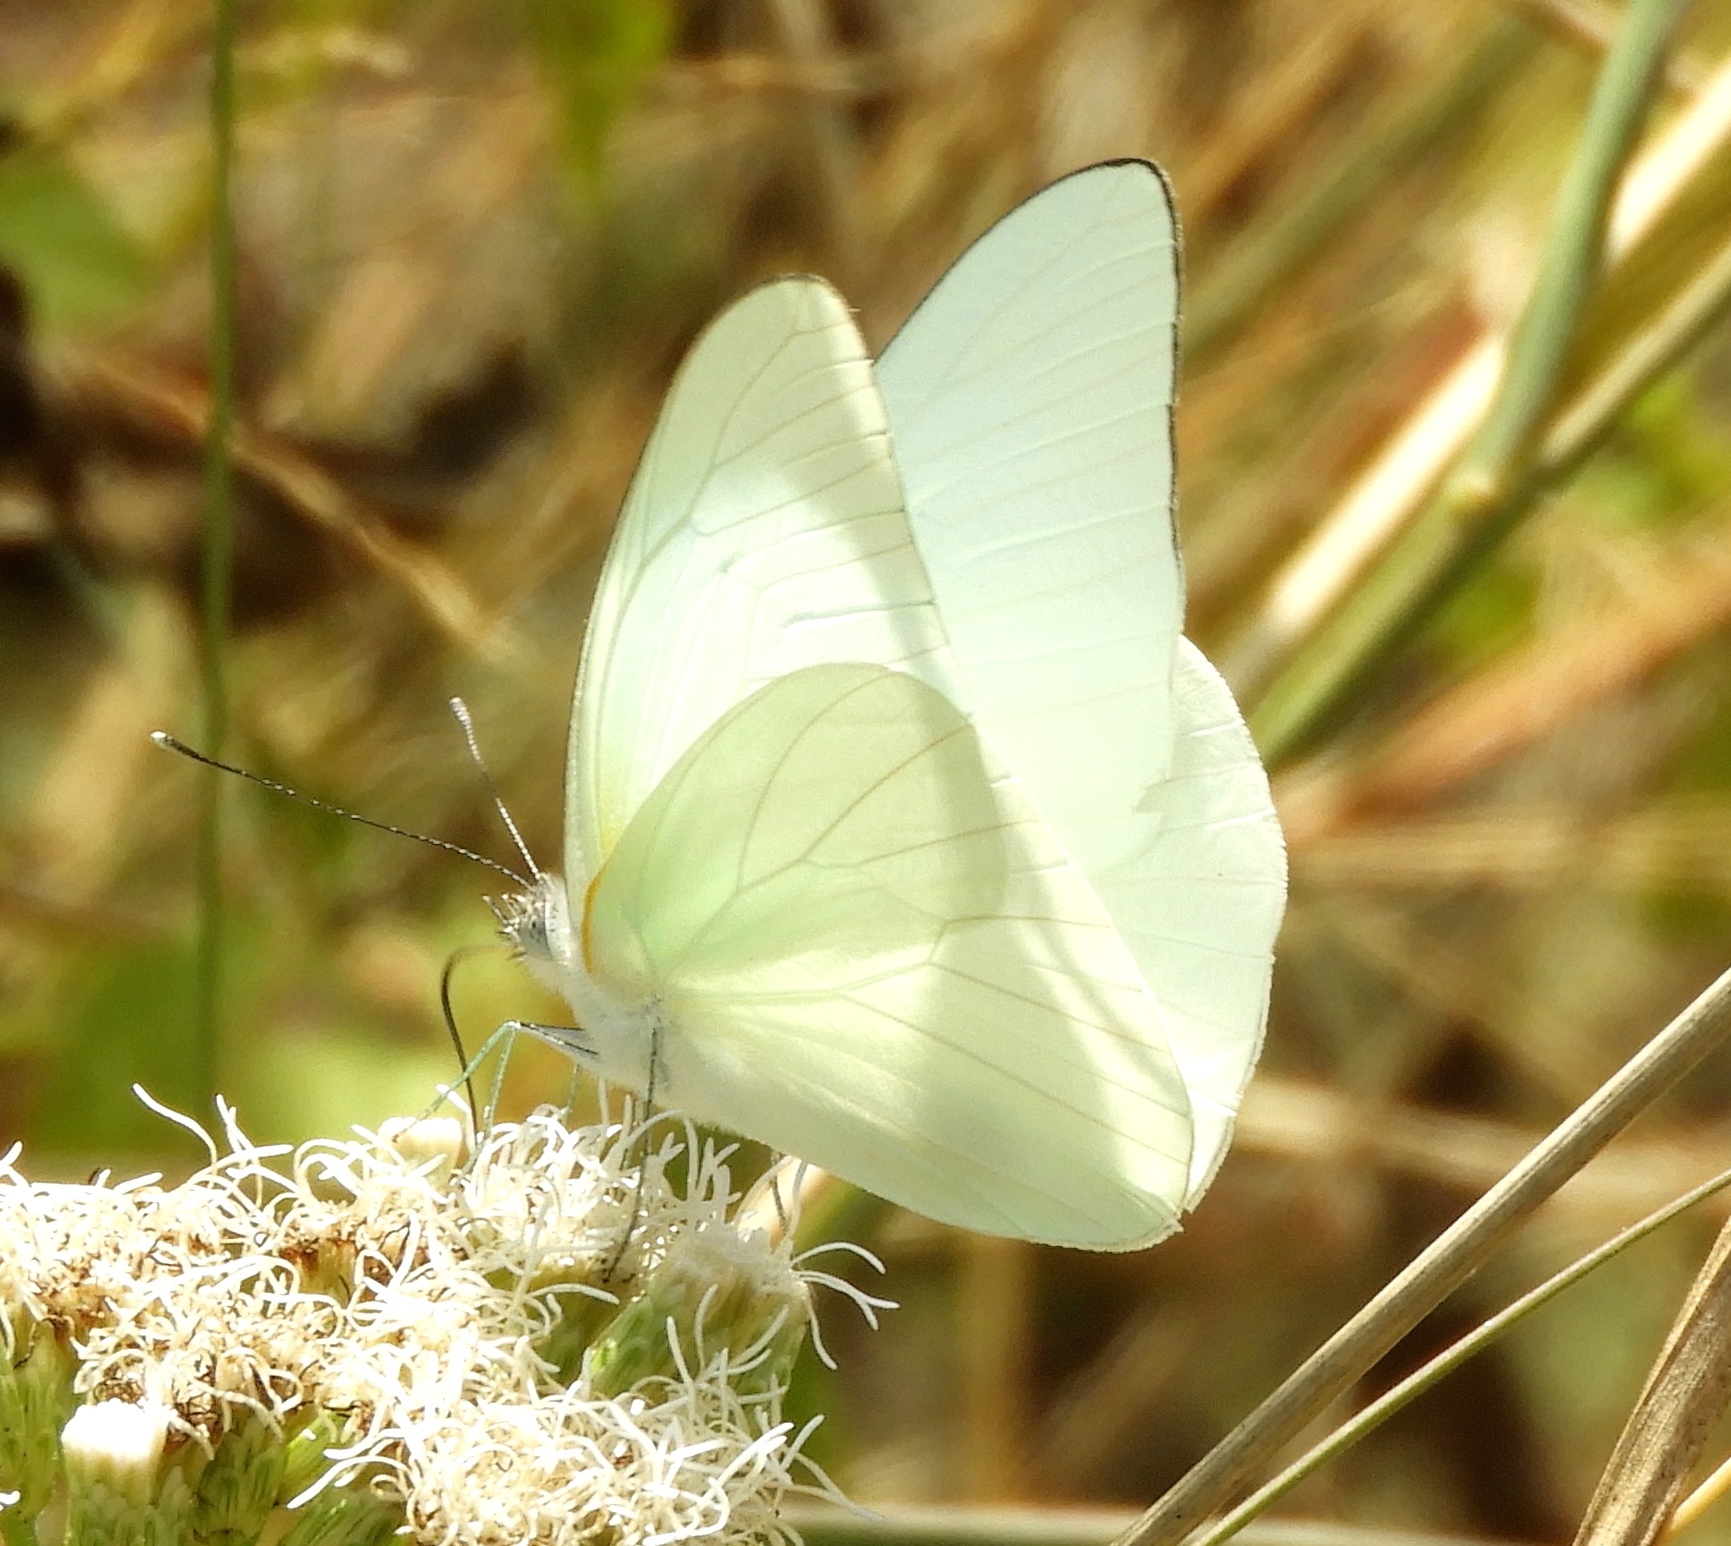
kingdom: Animalia
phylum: Arthropoda
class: Insecta
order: Lepidoptera
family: Pieridae
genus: Glutophrissa
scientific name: Glutophrissa drusilla
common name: Florida white
